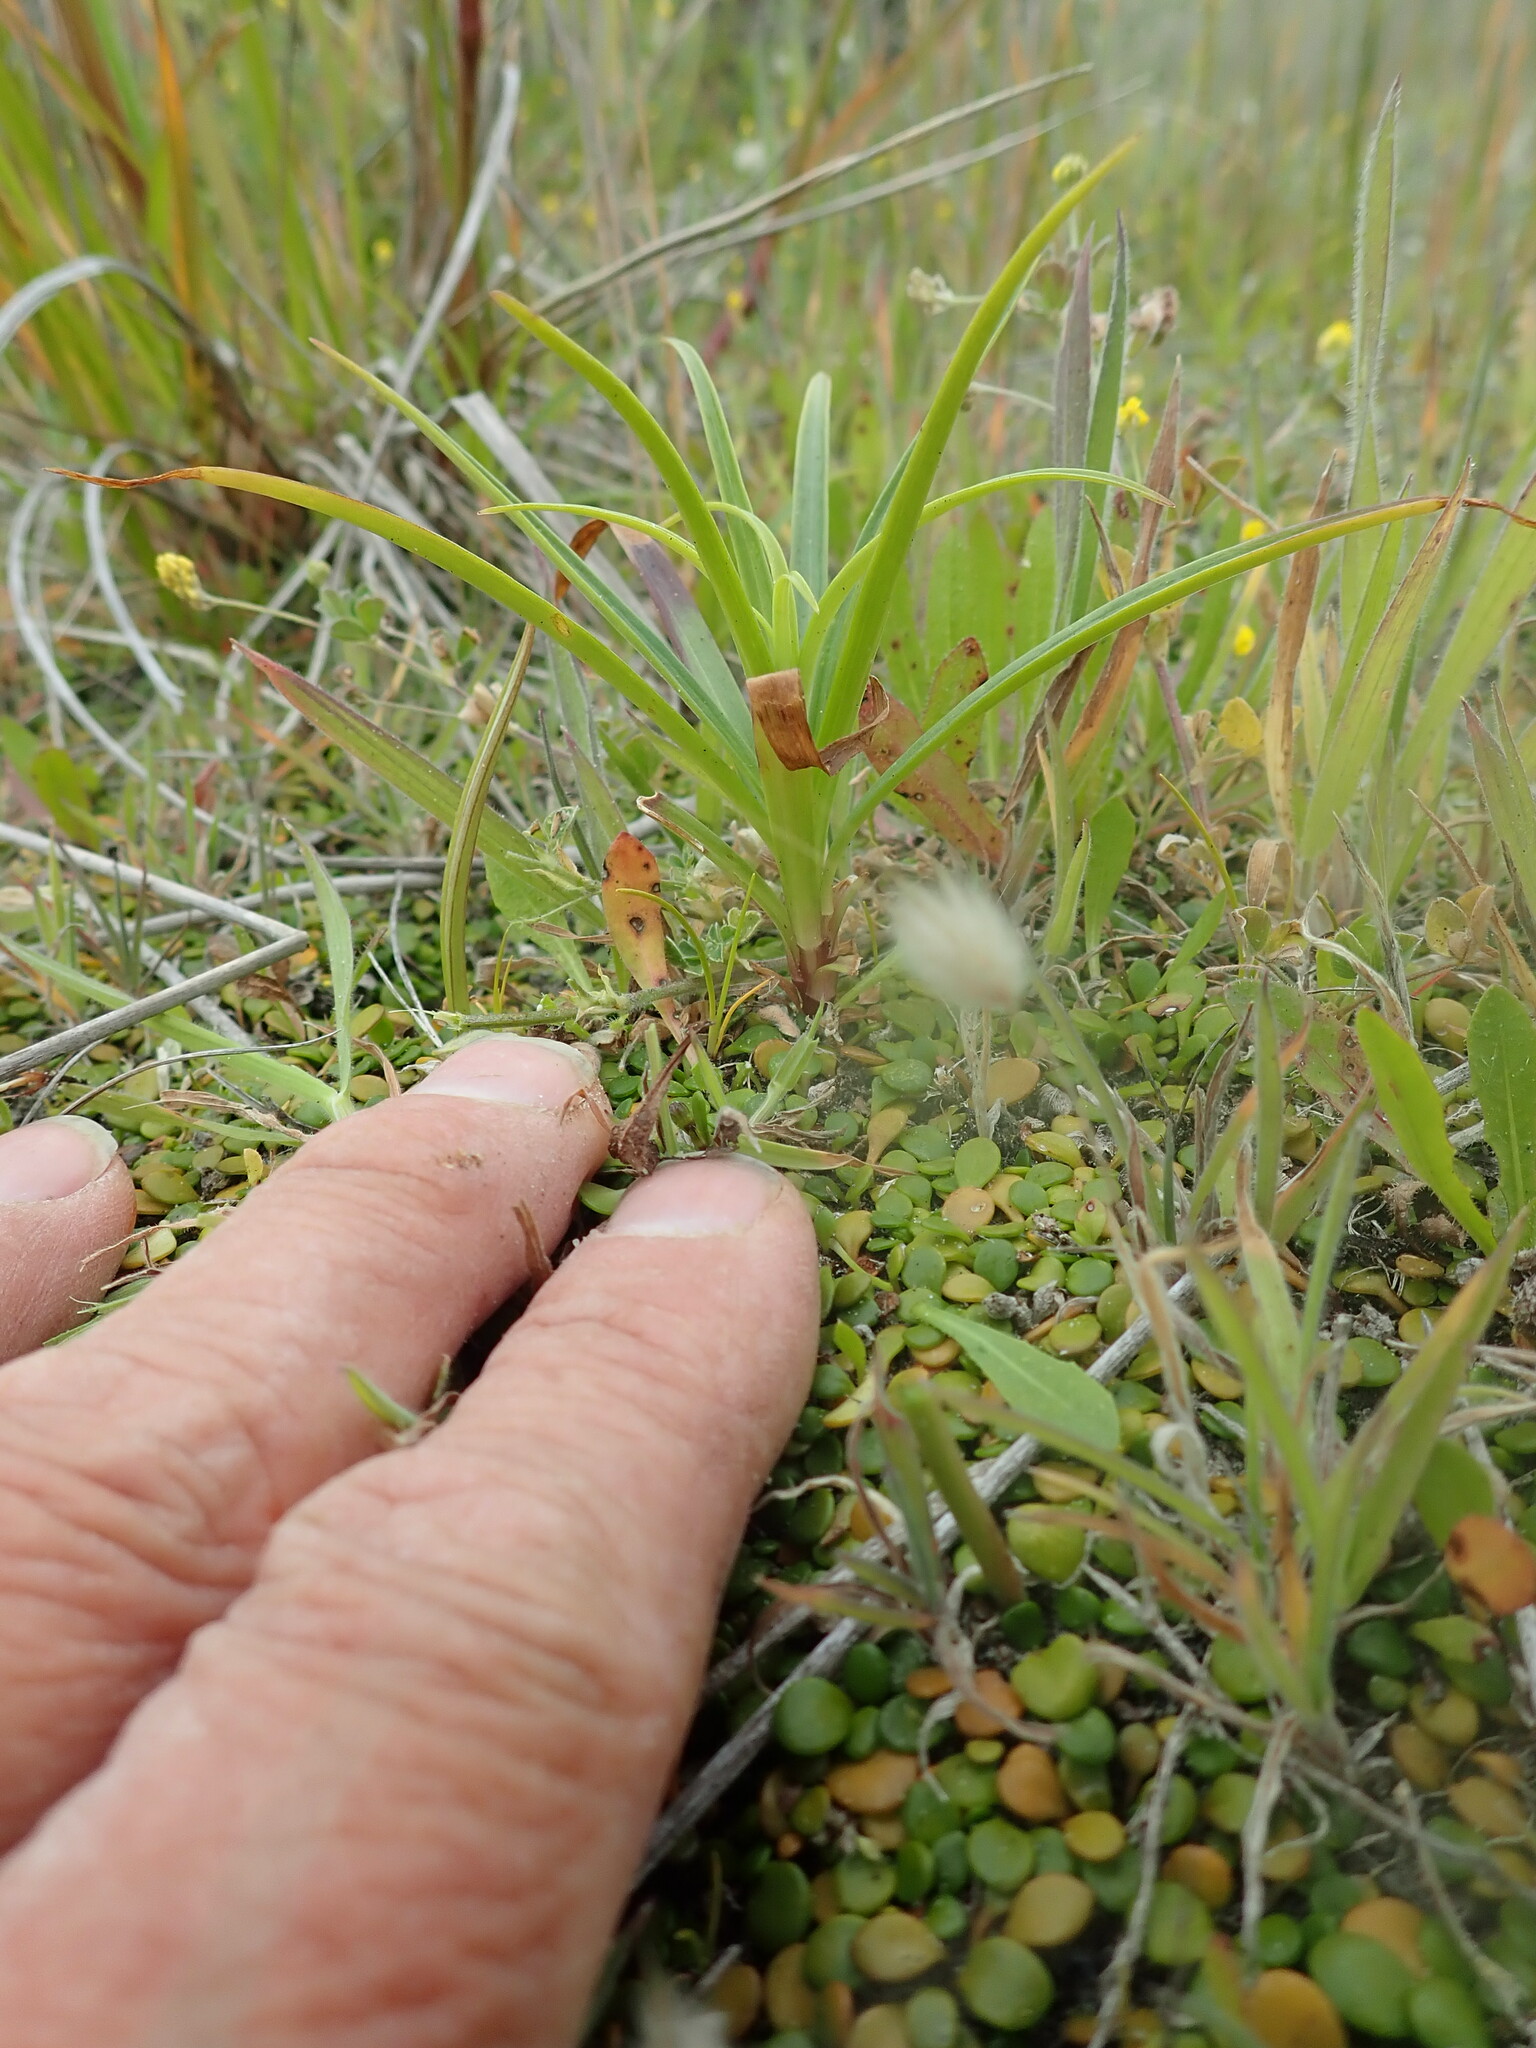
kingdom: Plantae
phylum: Tracheophyta
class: Liliopsida
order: Liliales
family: Liliaceae
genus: Lilium
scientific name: Lilium formosanum
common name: Formosa lily
